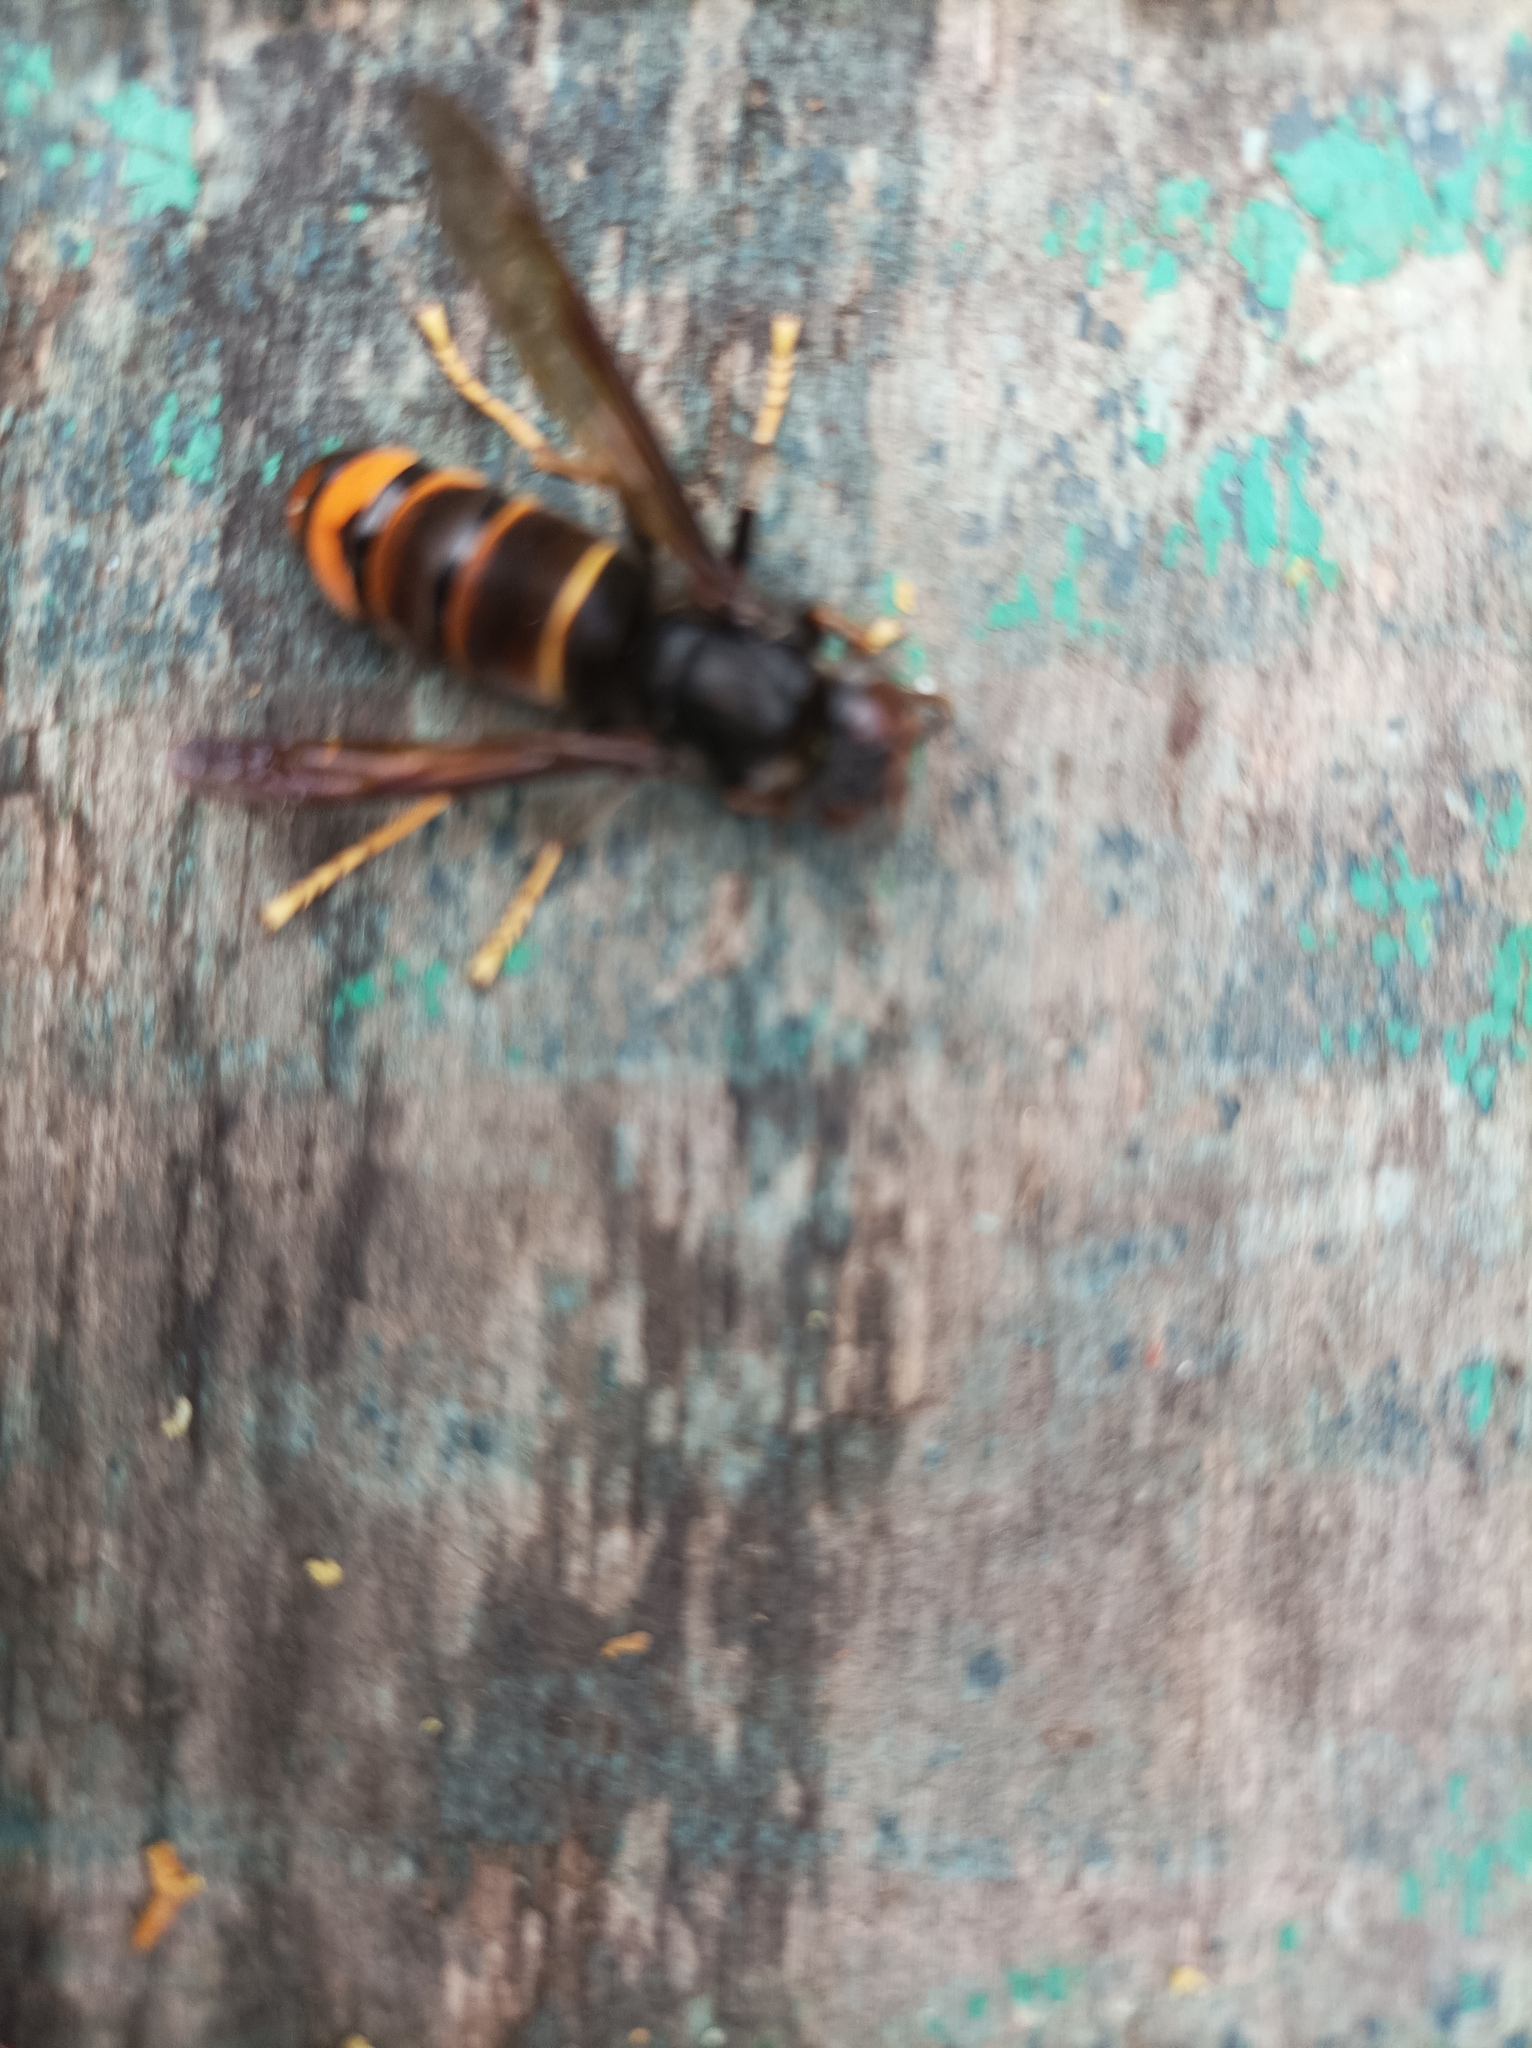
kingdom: Animalia
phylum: Arthropoda
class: Insecta
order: Hymenoptera
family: Vespidae
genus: Vespa
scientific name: Vespa velutina
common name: Asian hornet
